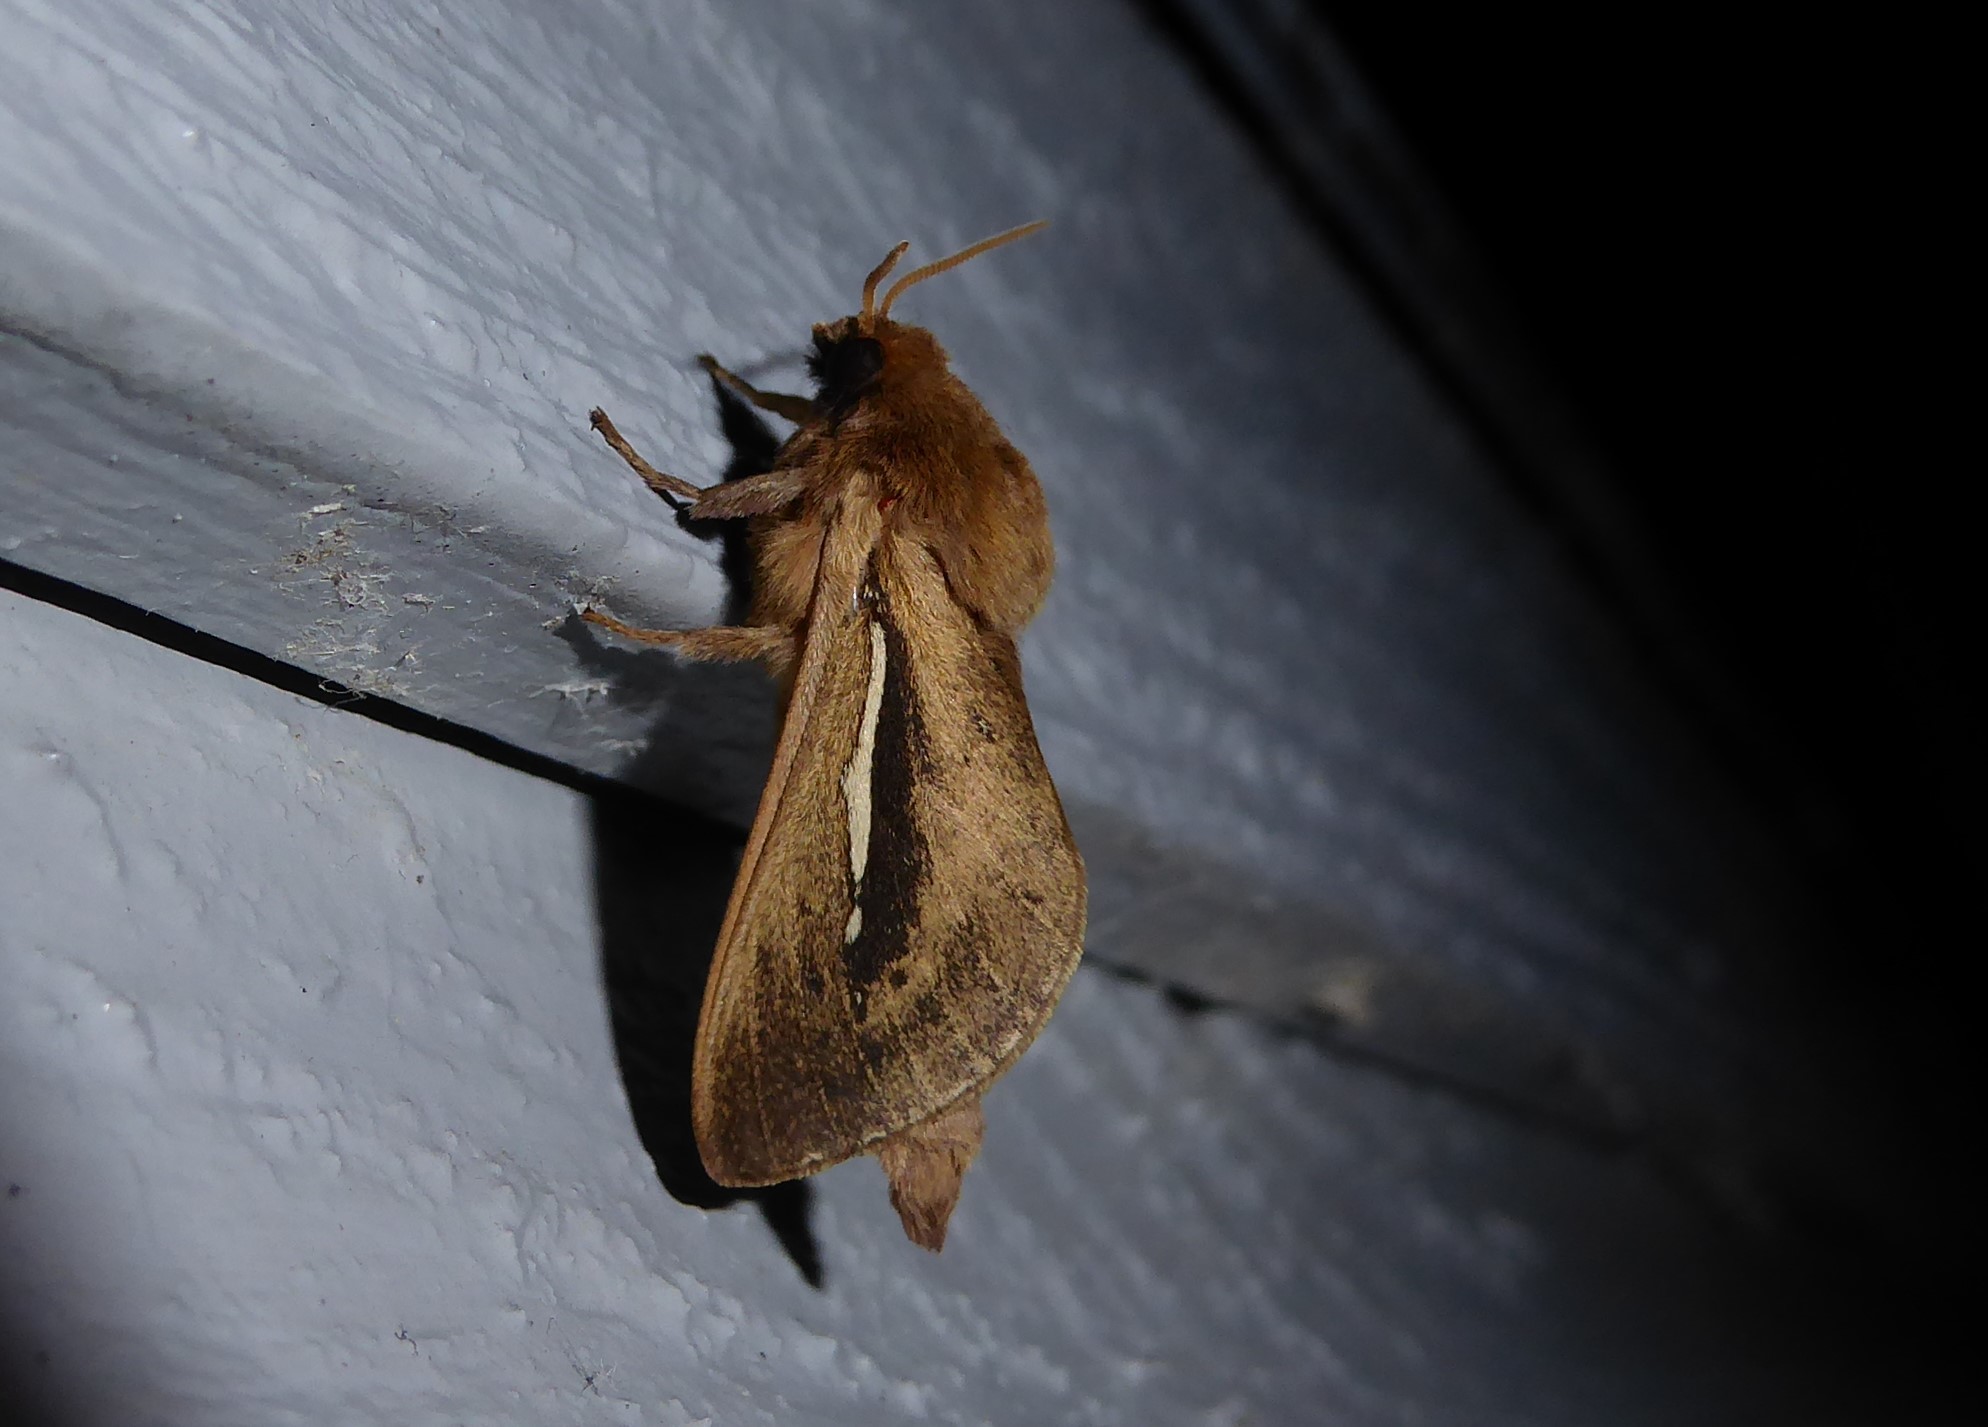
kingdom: Animalia
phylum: Arthropoda
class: Insecta
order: Lepidoptera
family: Hepialidae
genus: Wiseana
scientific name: Wiseana umbraculatus
